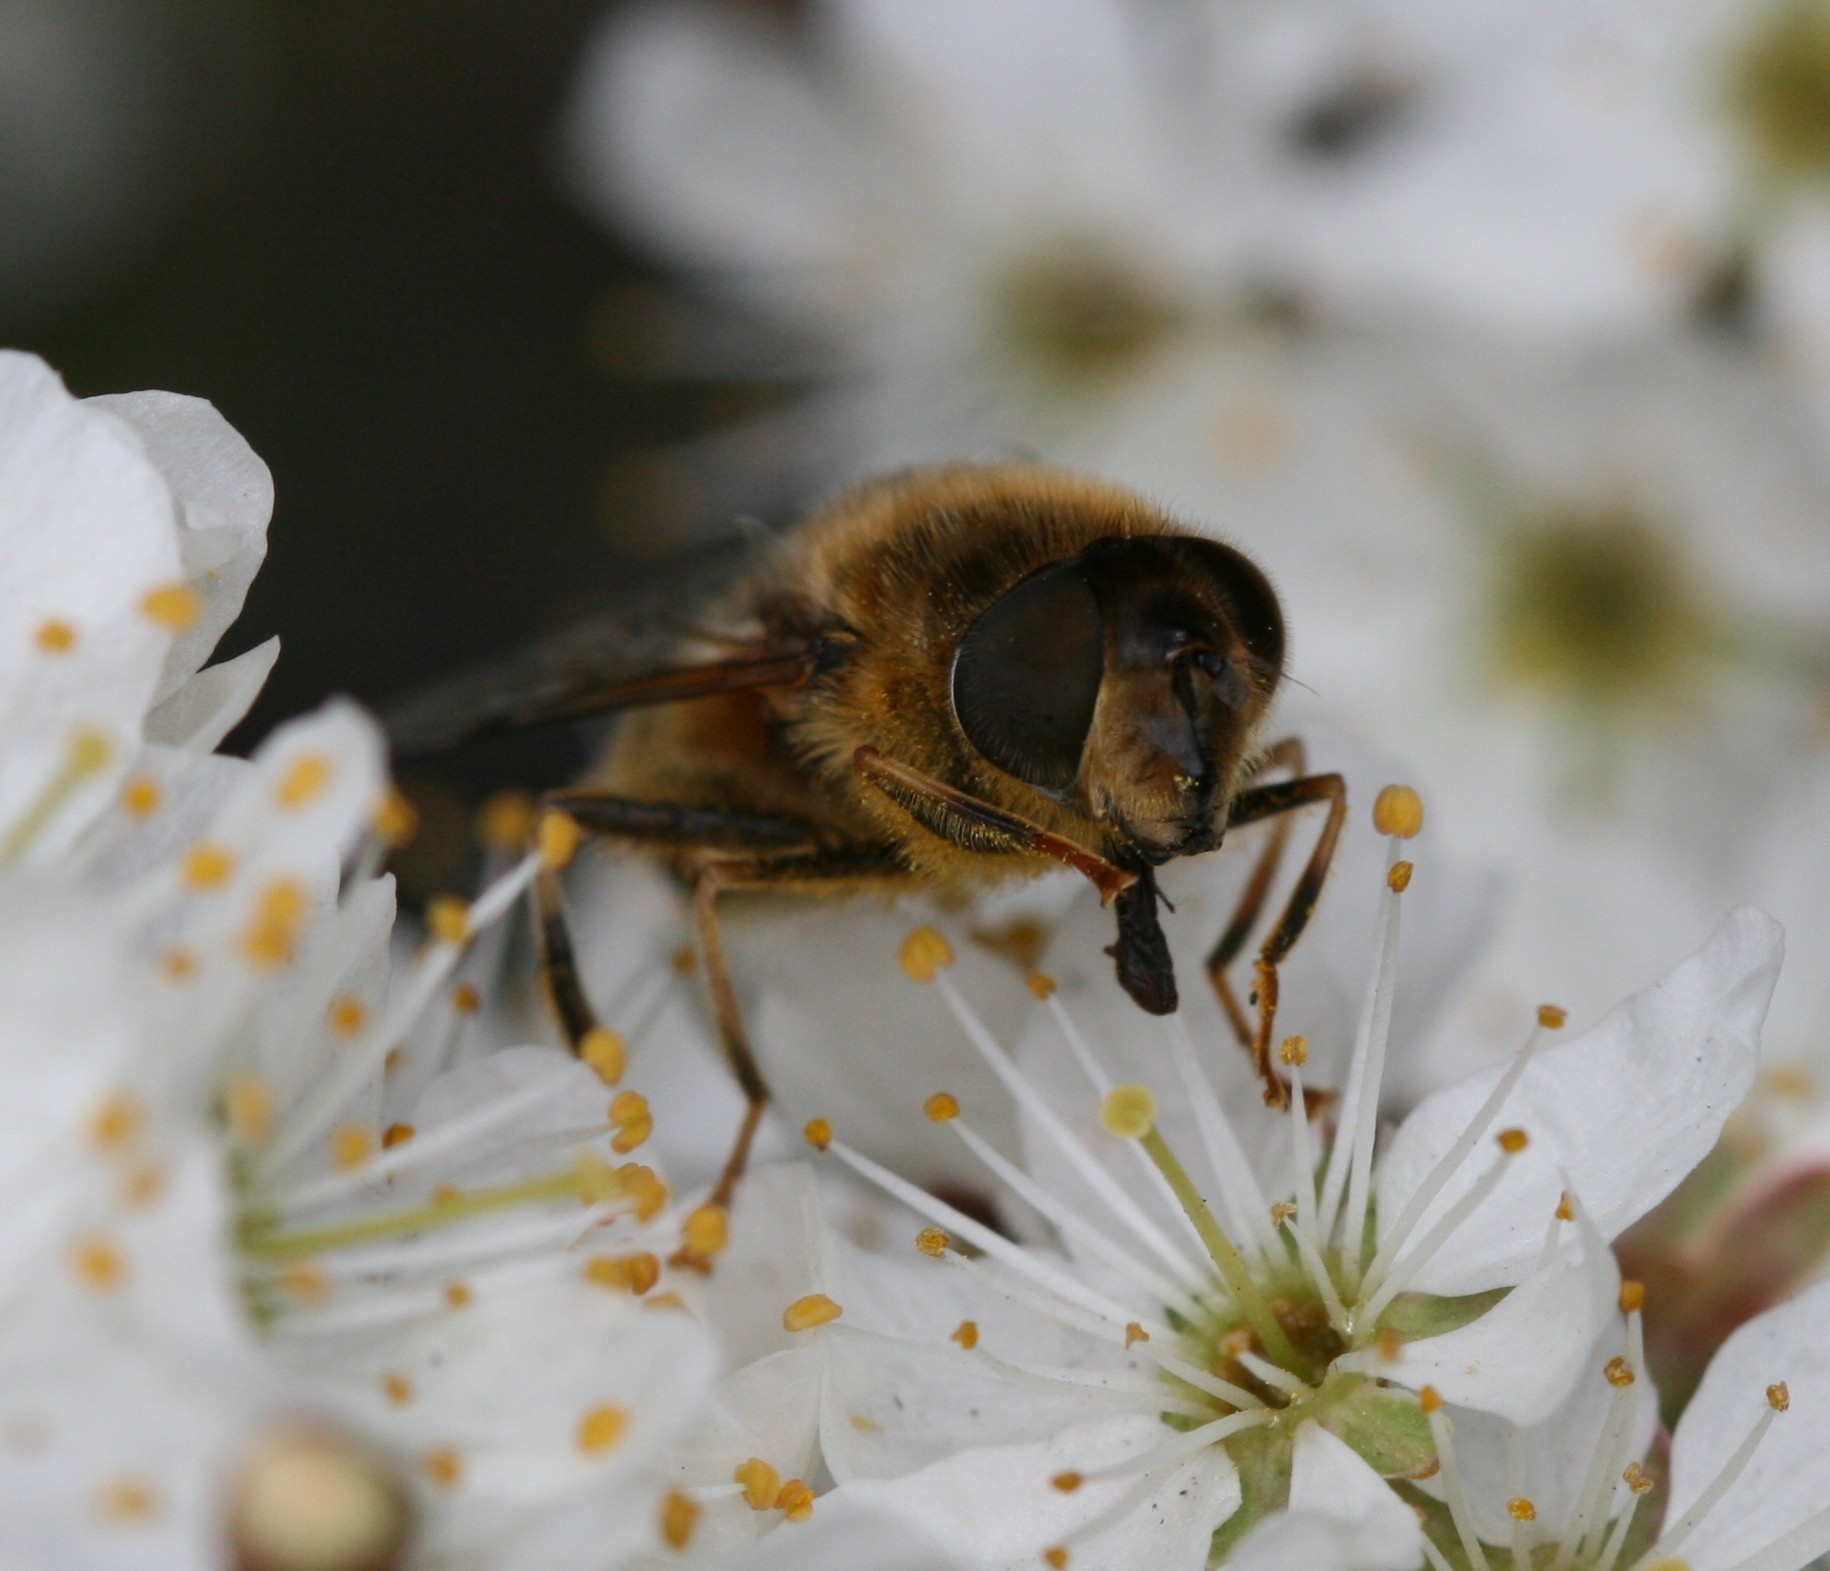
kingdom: Animalia
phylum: Arthropoda
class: Insecta
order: Diptera
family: Syrphidae
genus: Eristalis
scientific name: Eristalis pertinax
